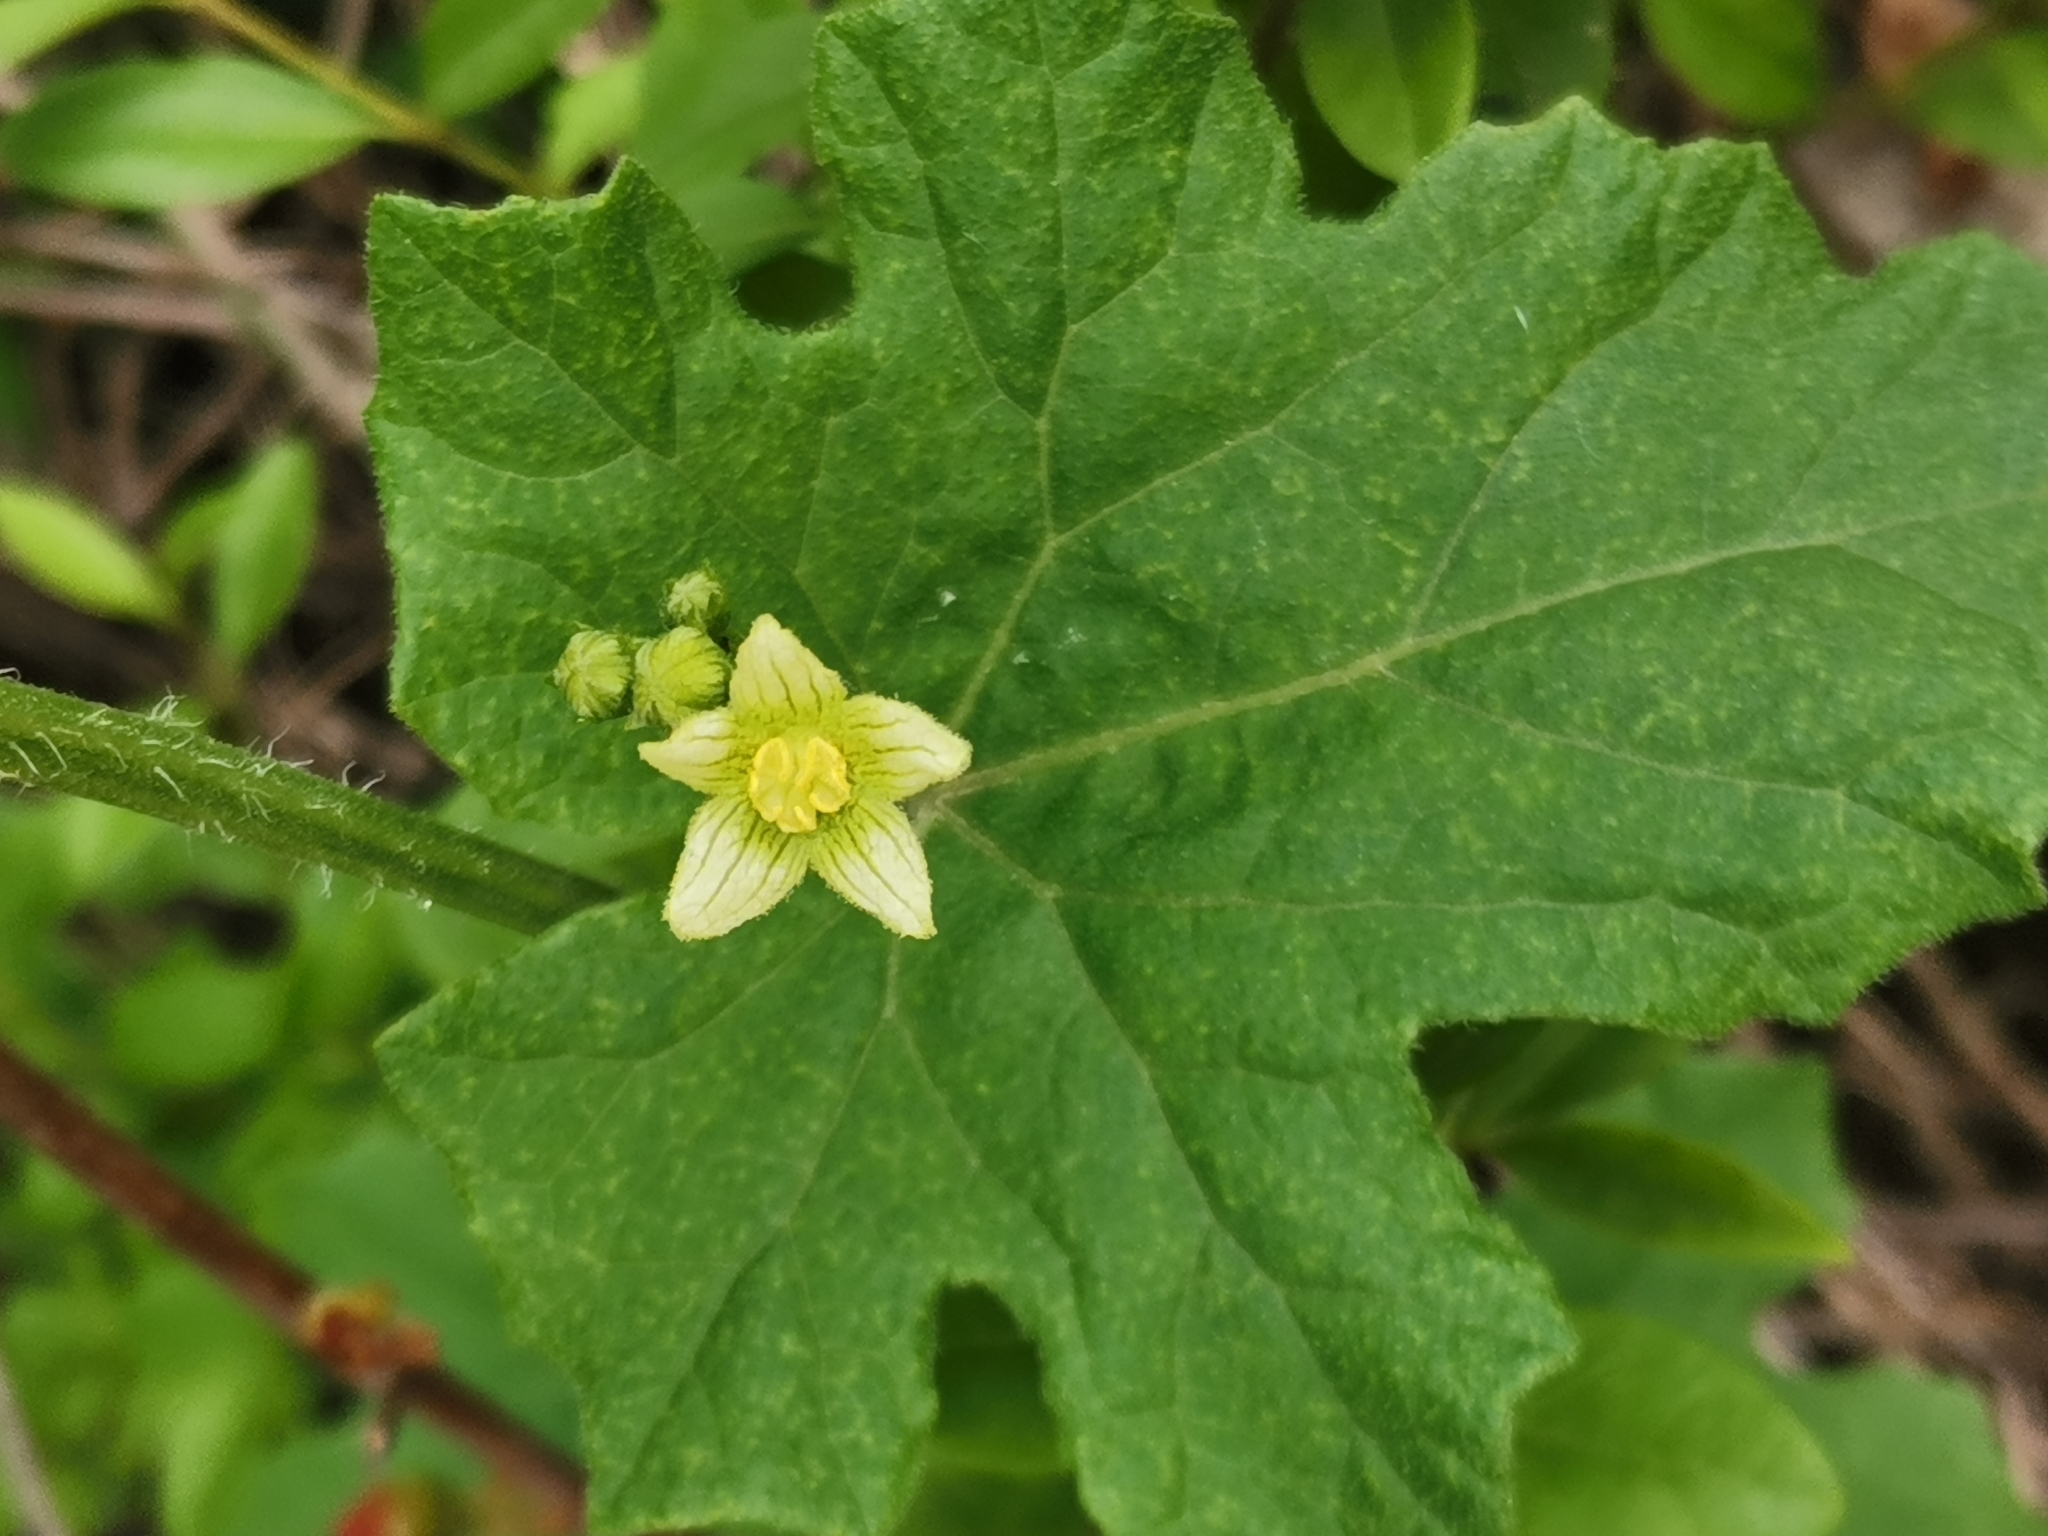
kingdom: Plantae
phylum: Tracheophyta
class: Magnoliopsida
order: Cucurbitales
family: Cucurbitaceae
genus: Bryonia
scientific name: Bryonia dioica
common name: White bryony
